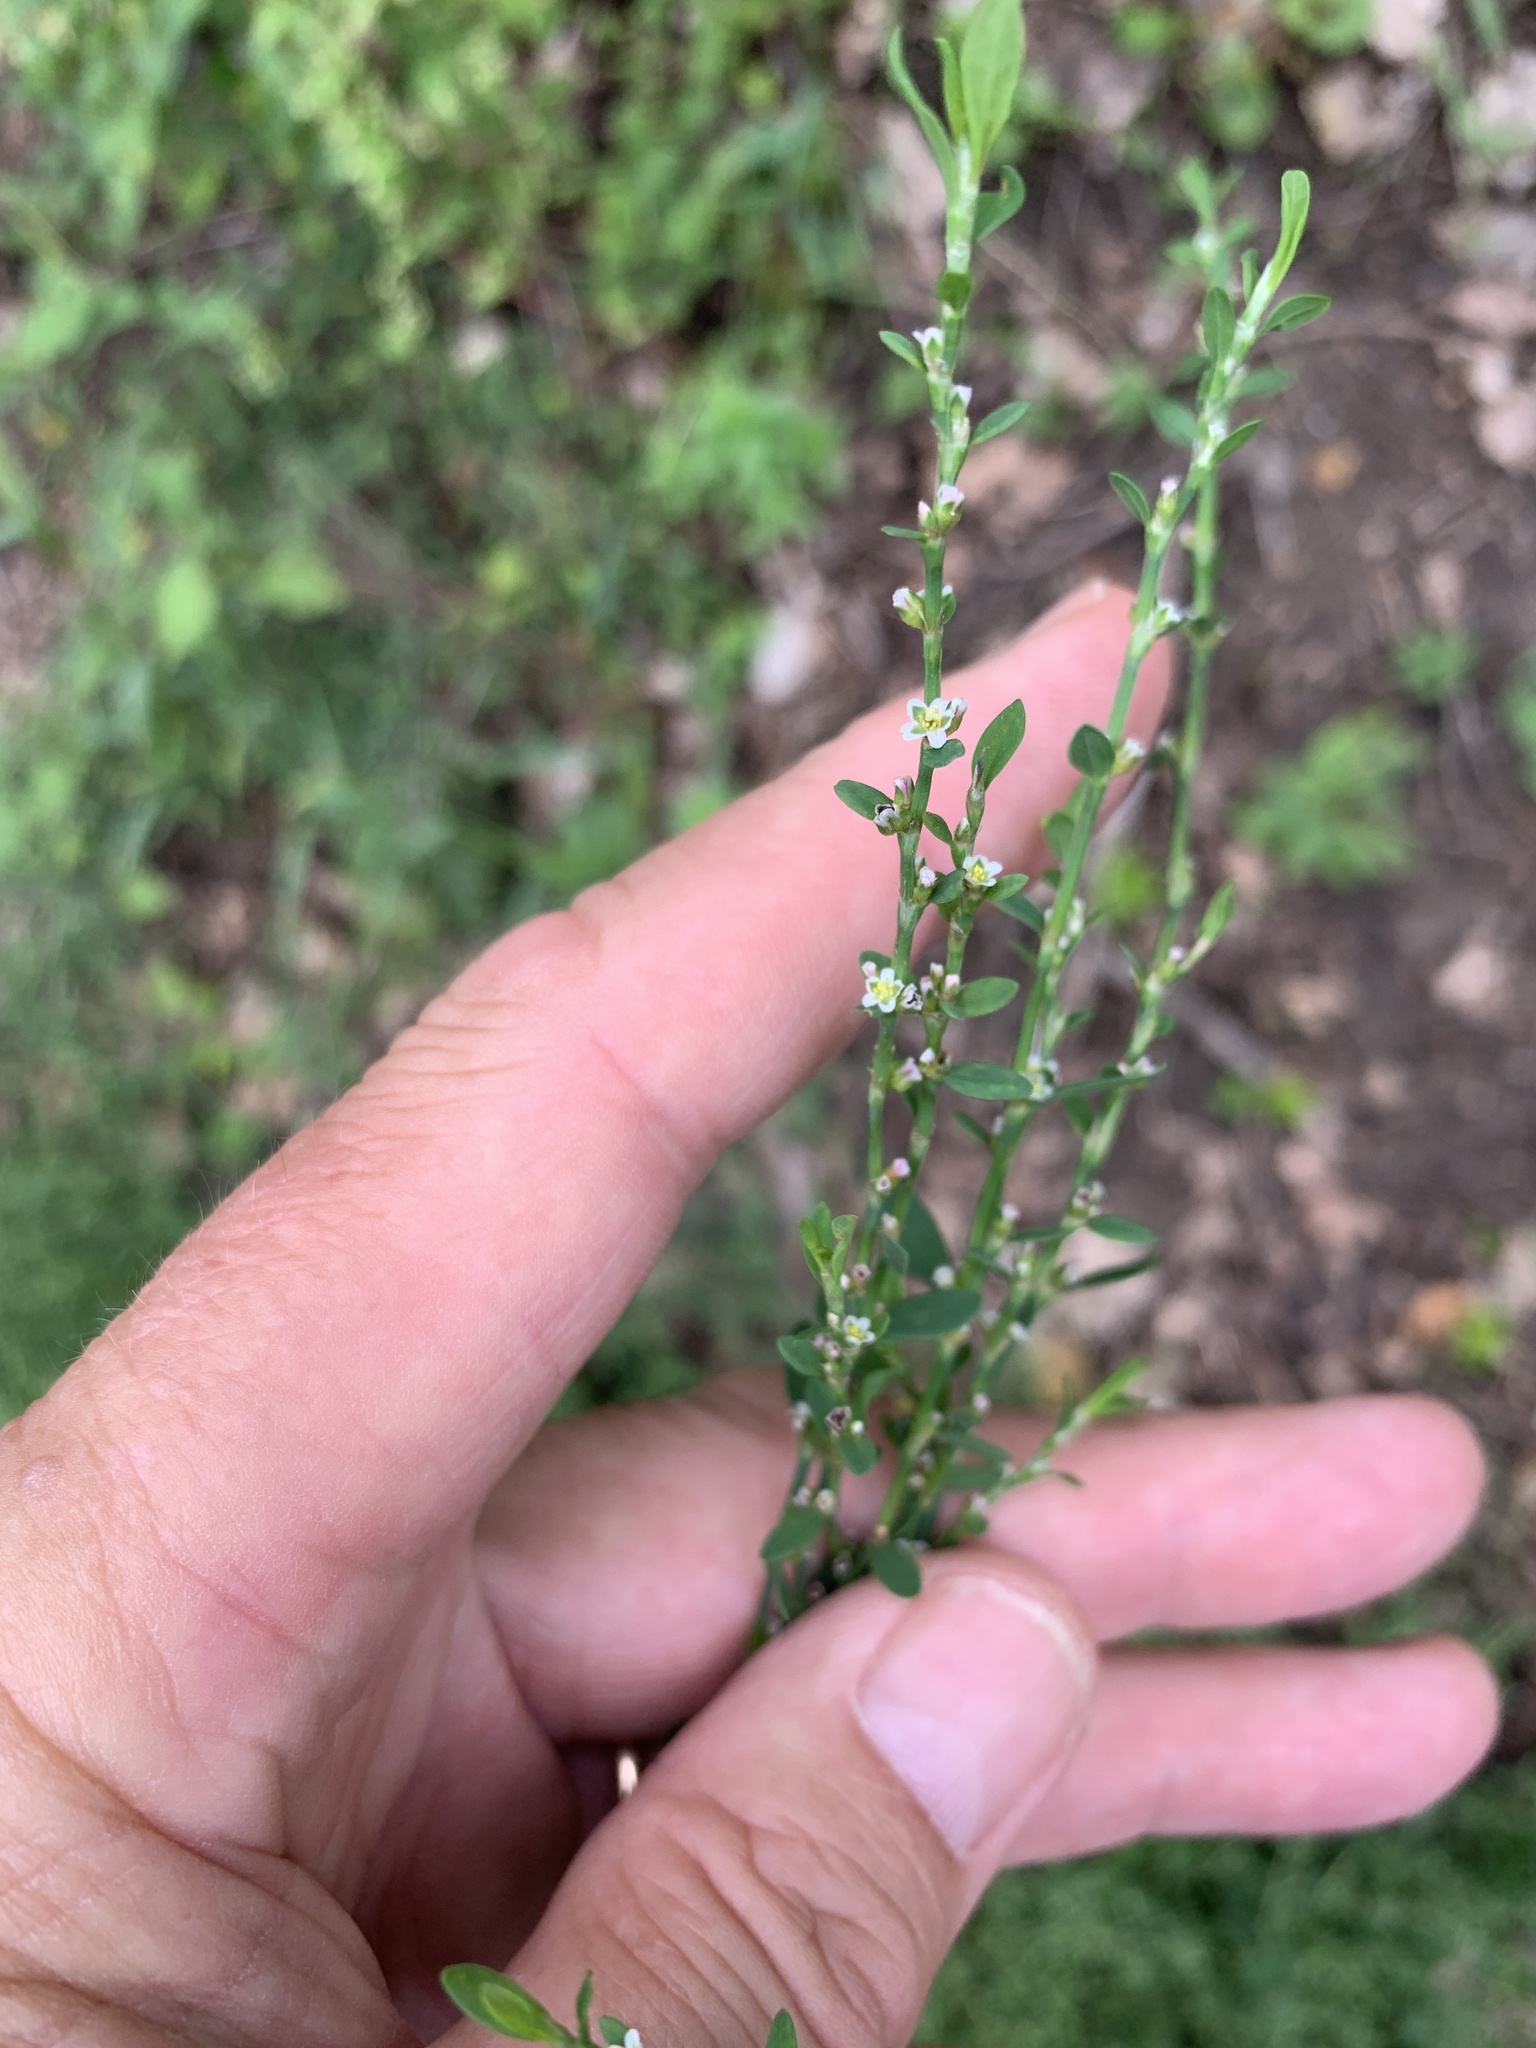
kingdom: Plantae
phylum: Tracheophyta
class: Magnoliopsida
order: Caryophyllales
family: Amaranthaceae
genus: Amaranthus
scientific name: Amaranthus retroflexus
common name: Redroot amaranth
